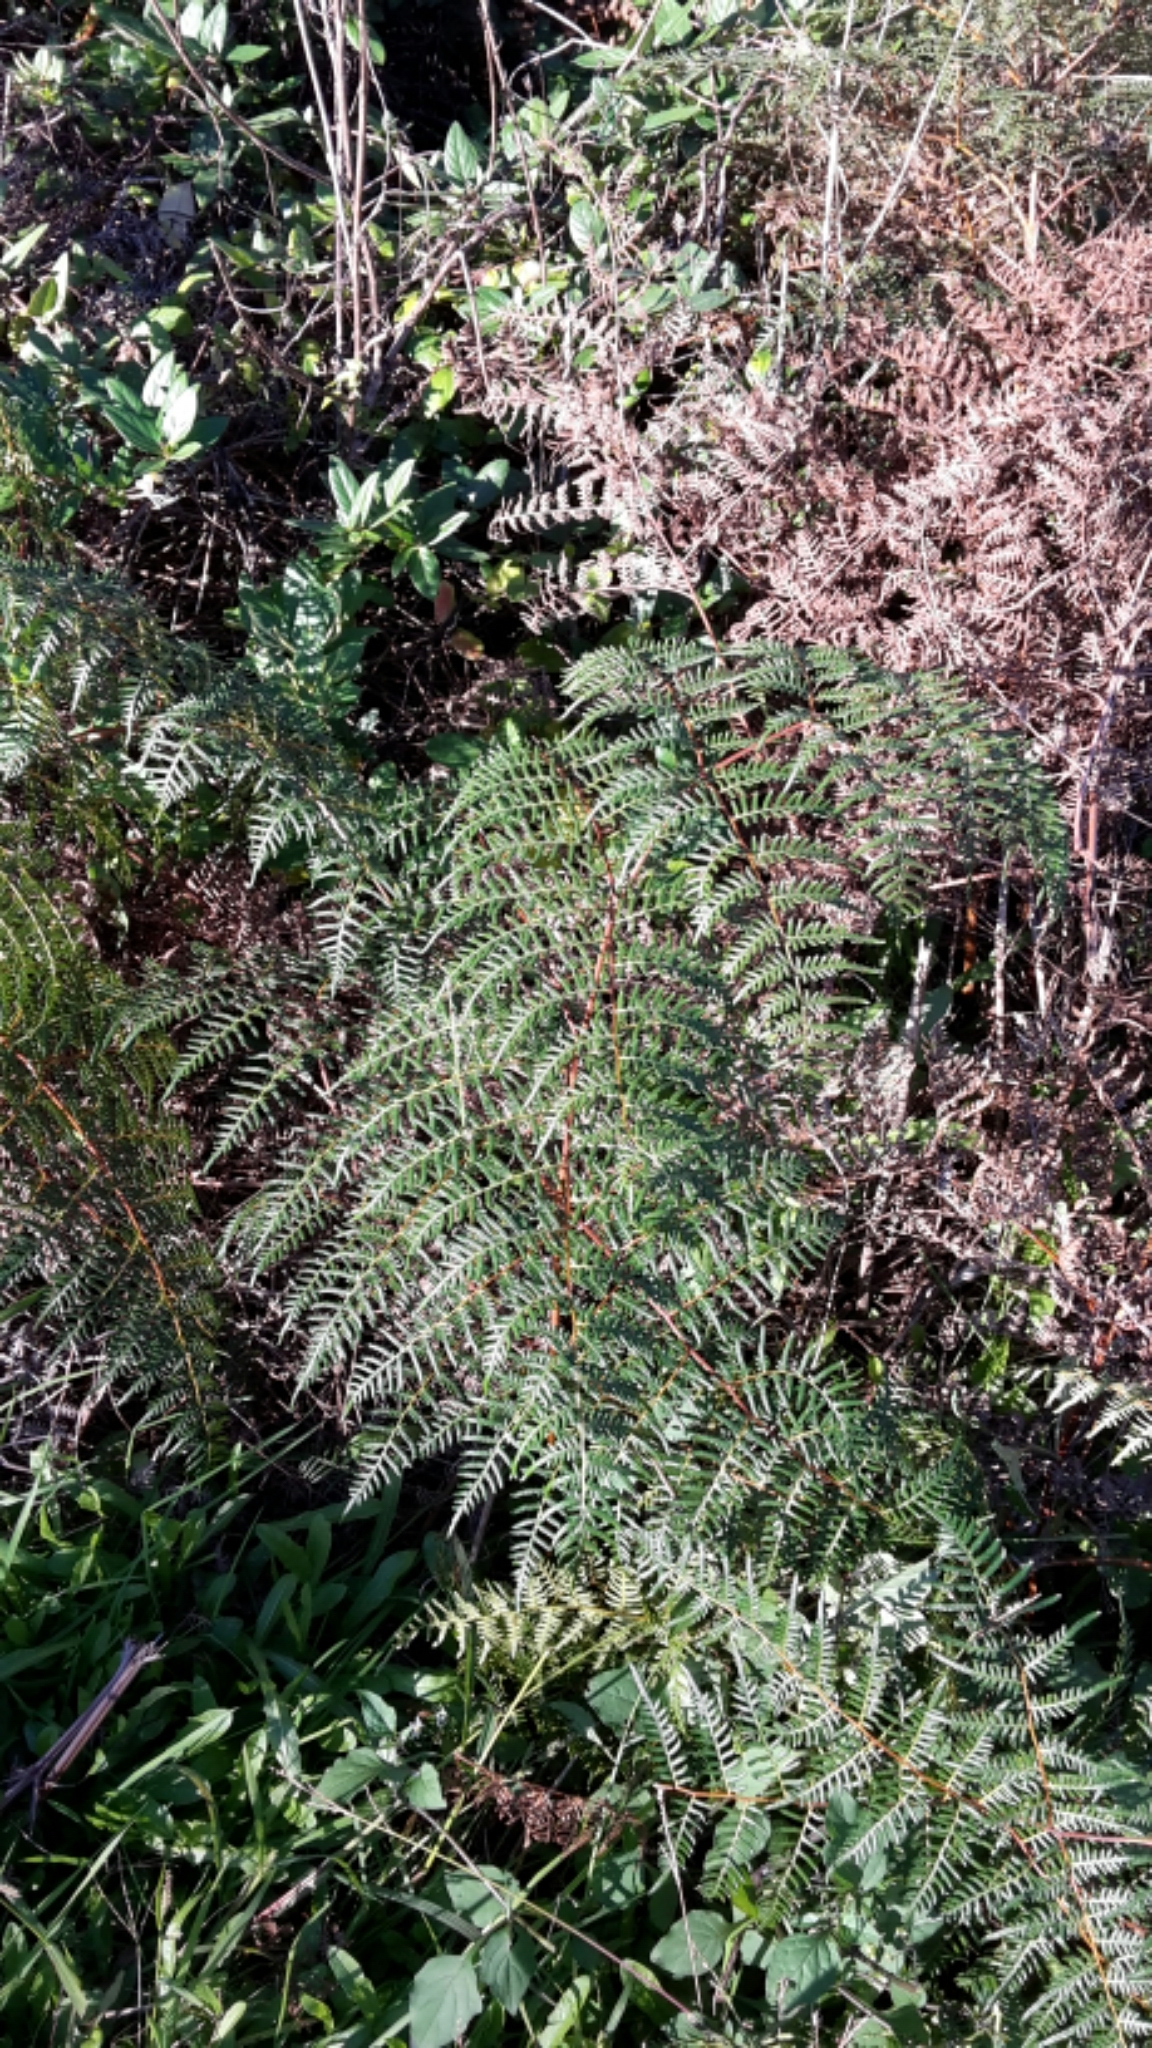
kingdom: Plantae
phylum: Tracheophyta
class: Polypodiopsida
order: Polypodiales
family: Dennstaedtiaceae
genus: Pteridium
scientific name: Pteridium esculentum
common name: Bracken fern
